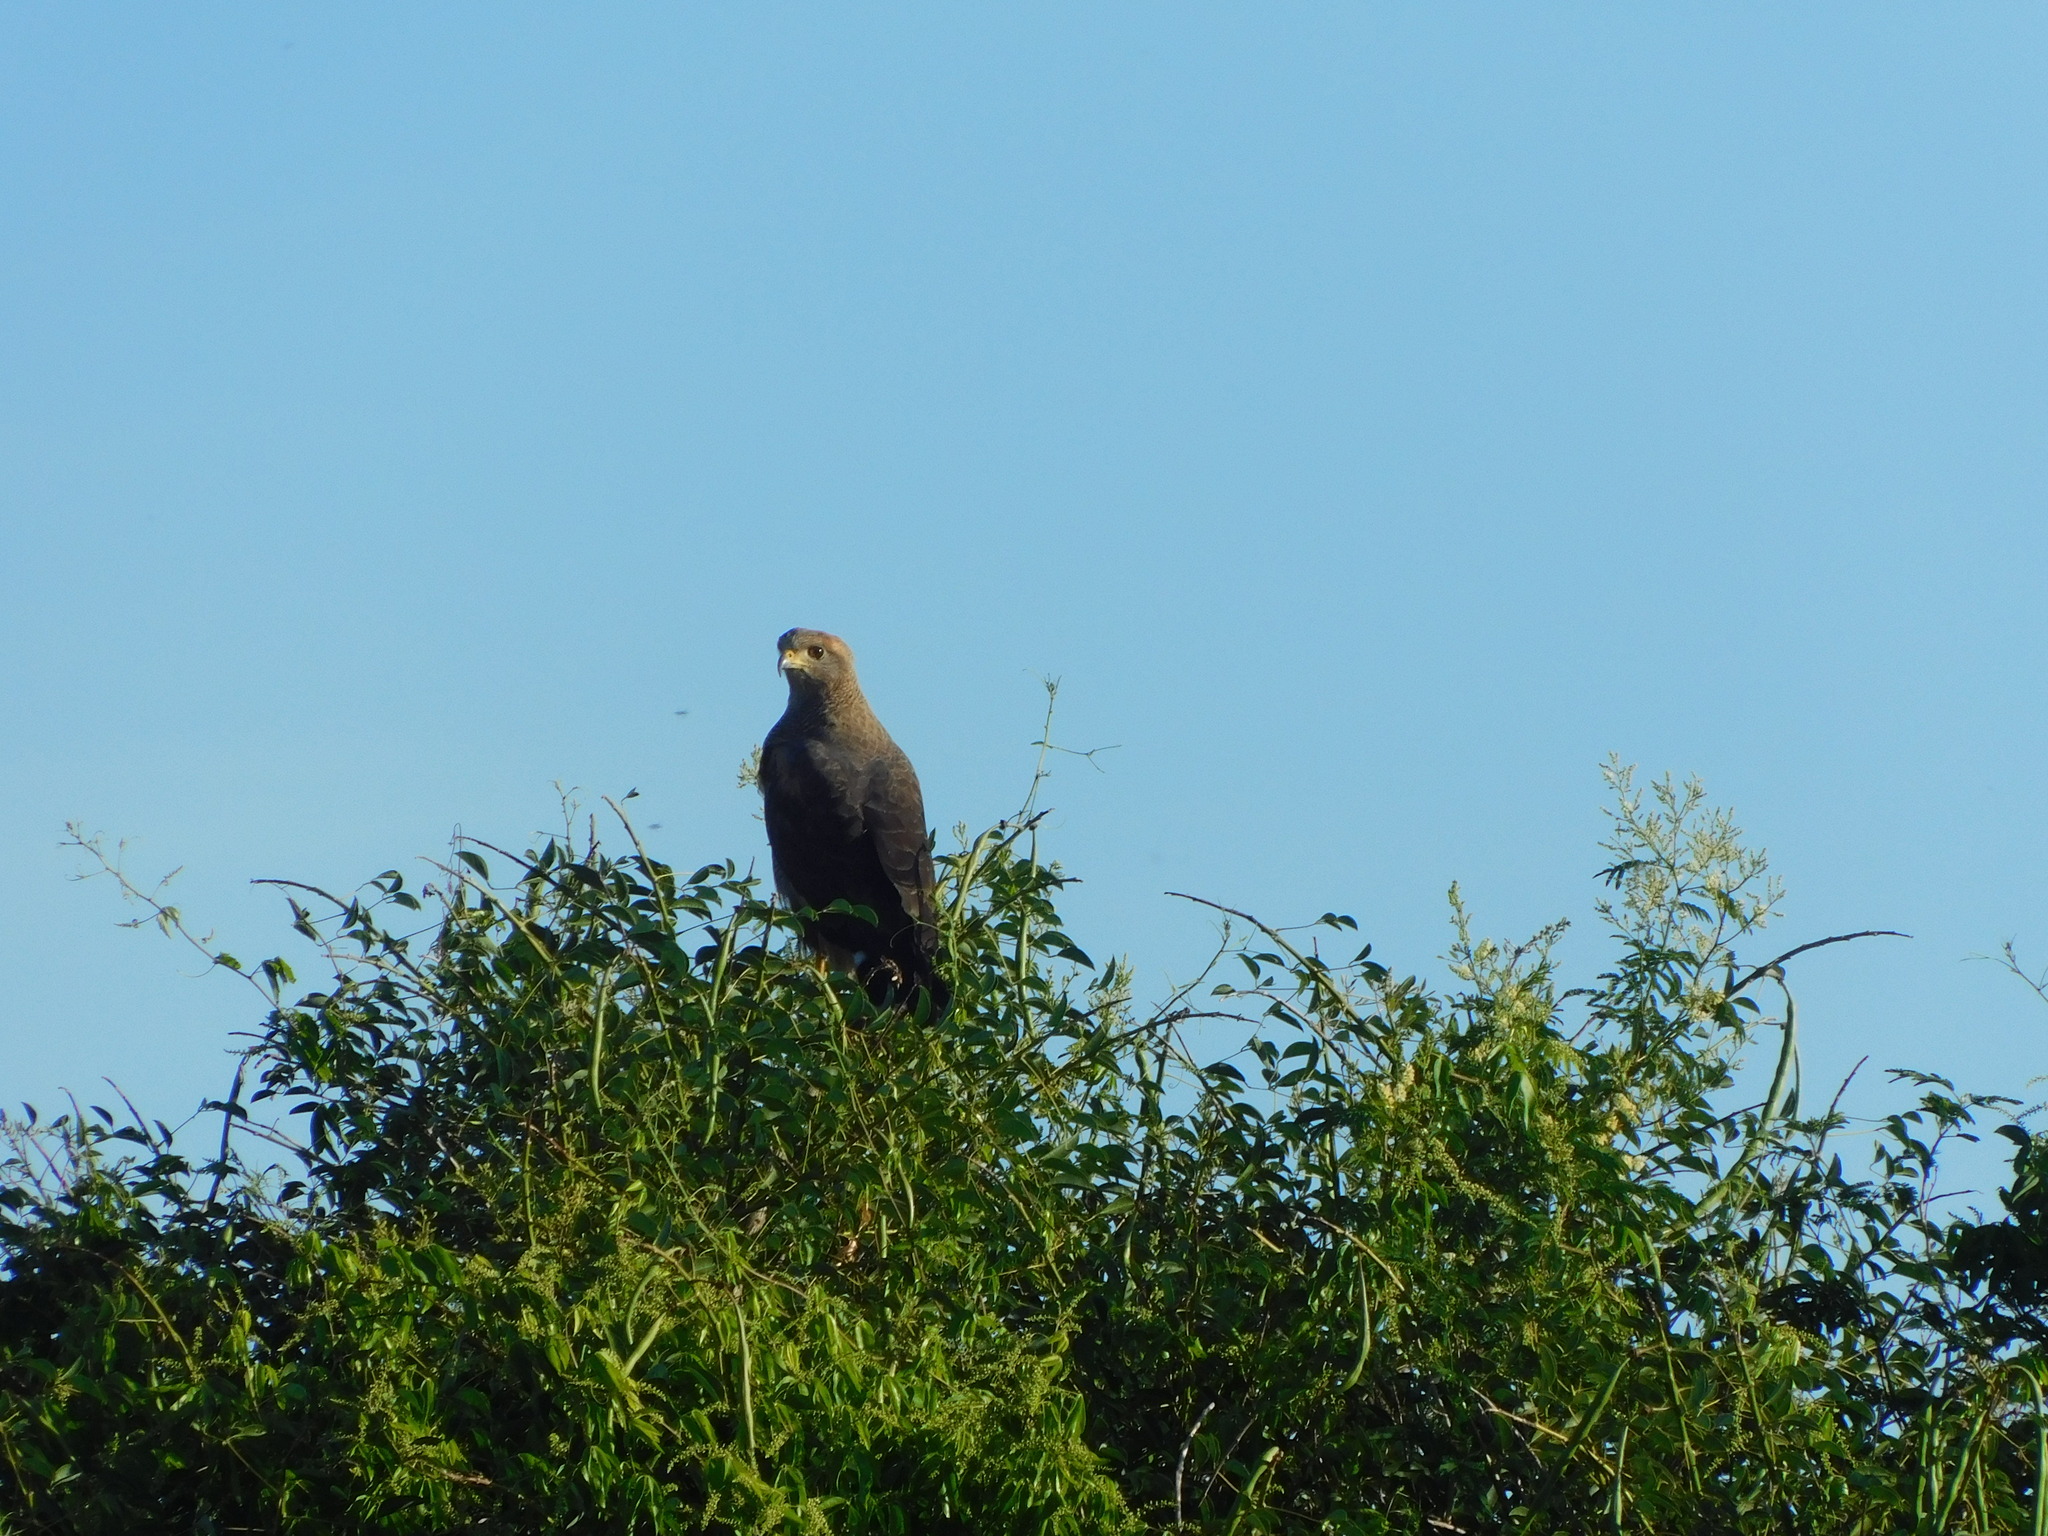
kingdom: Animalia
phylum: Chordata
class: Aves
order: Accipitriformes
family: Accipitridae
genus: Buteogallus
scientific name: Buteogallus meridionalis
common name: Savanna hawk
